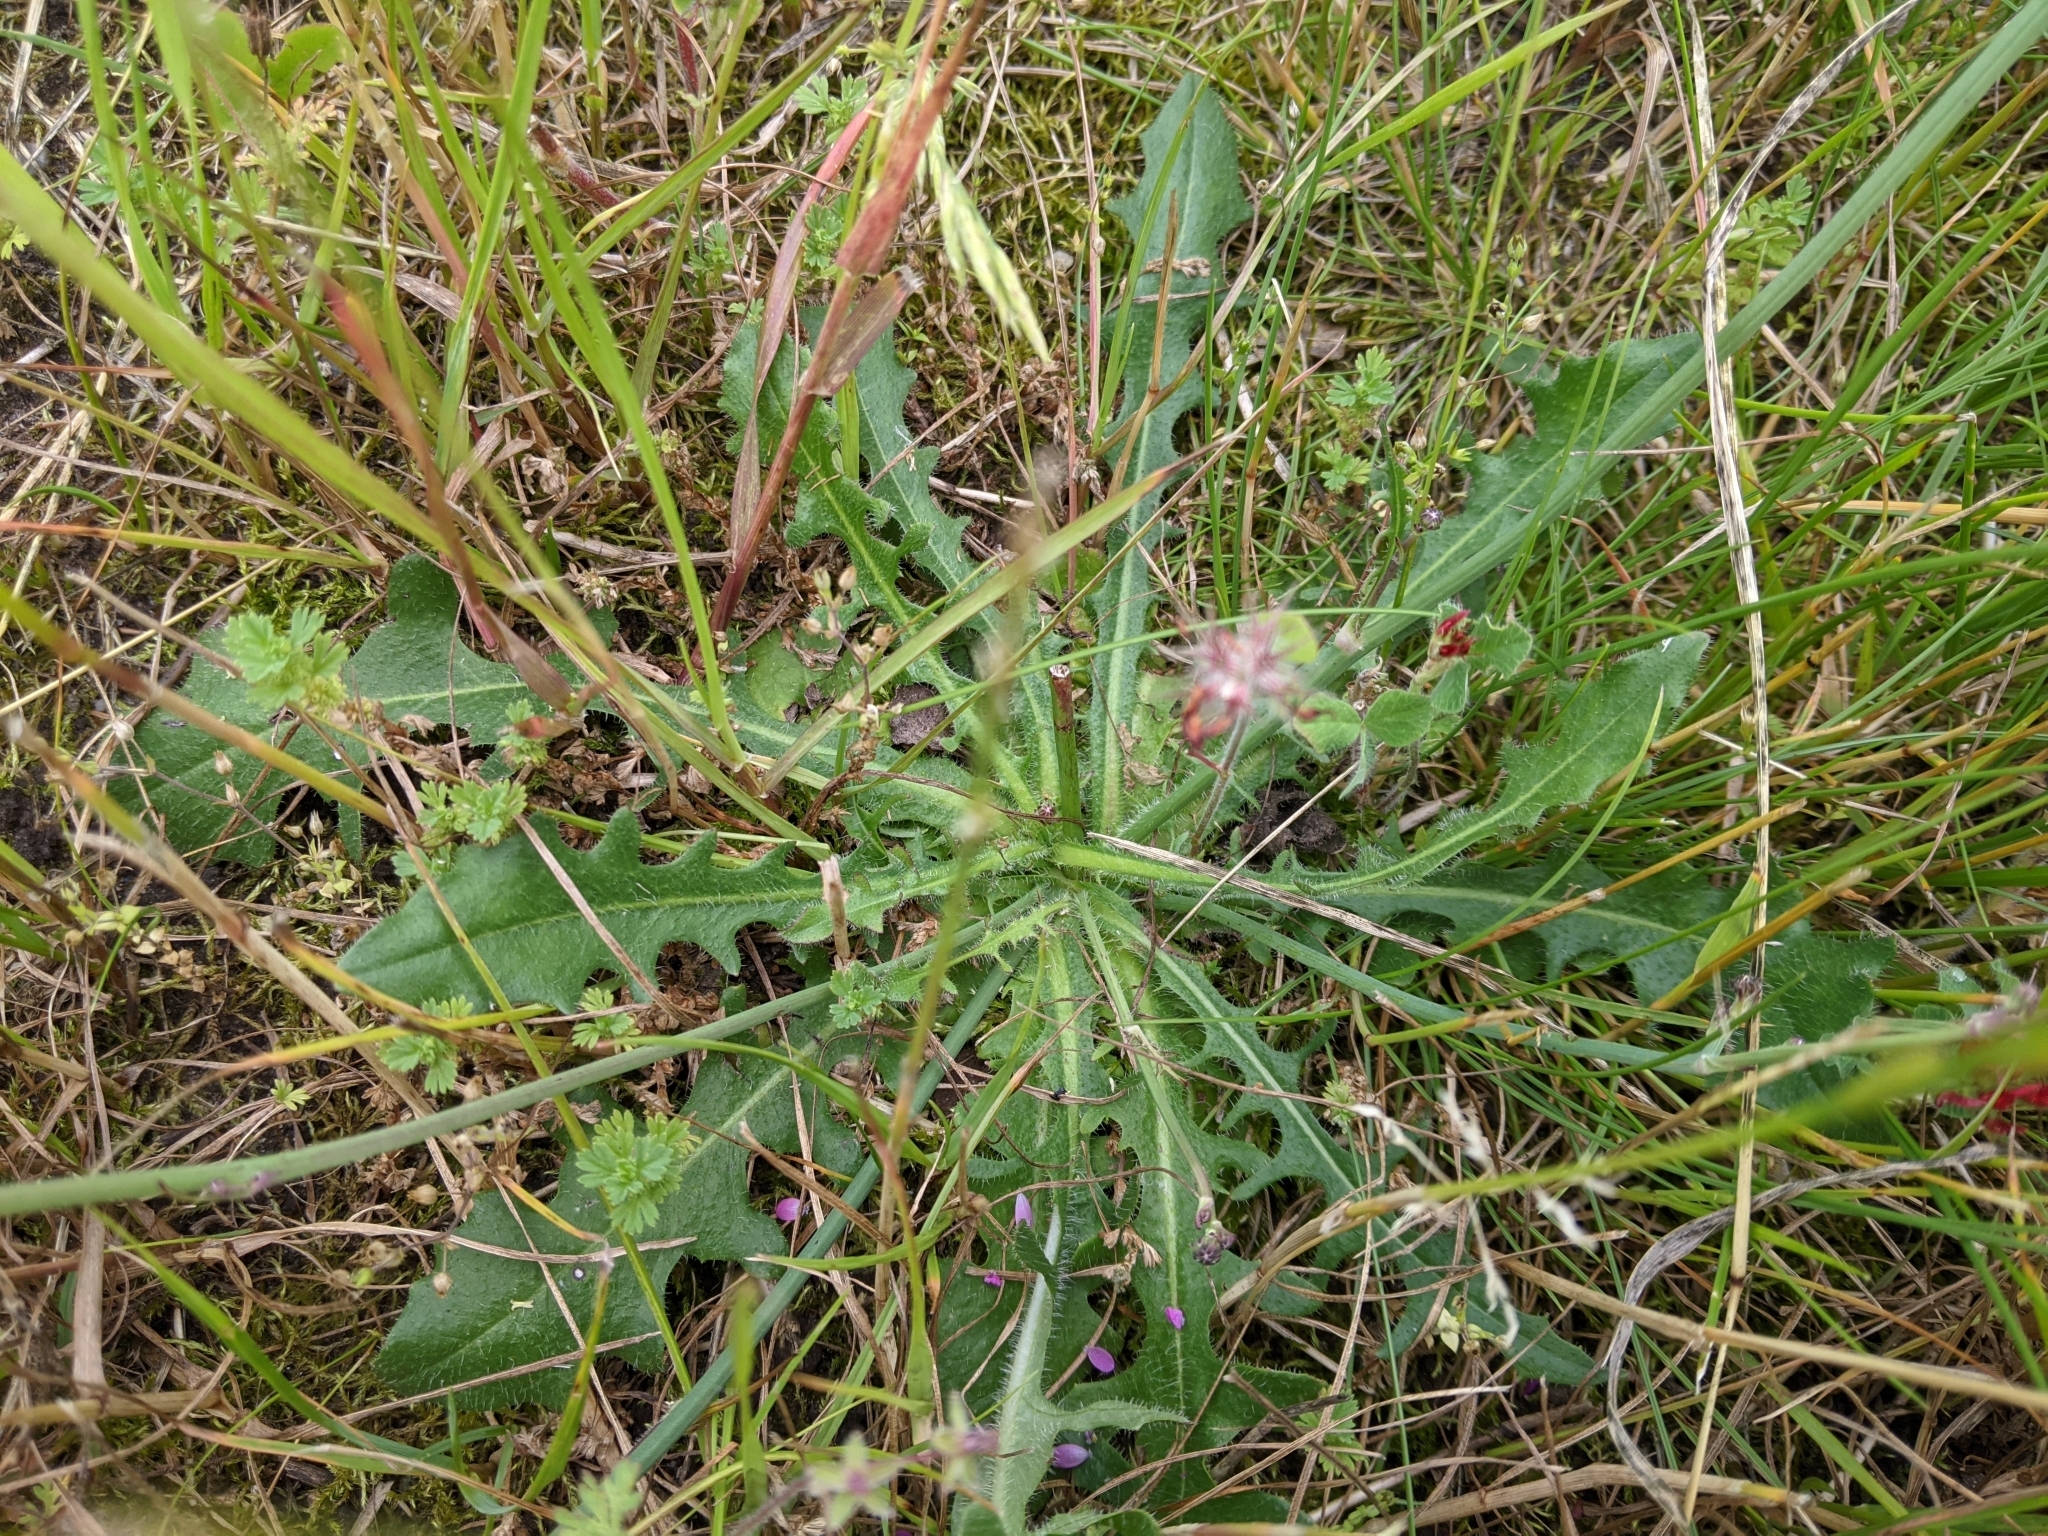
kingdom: Plantae
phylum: Tracheophyta
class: Magnoliopsida
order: Asterales
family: Asteraceae
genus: Hypochaeris
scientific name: Hypochaeris radicata
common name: Flatweed
